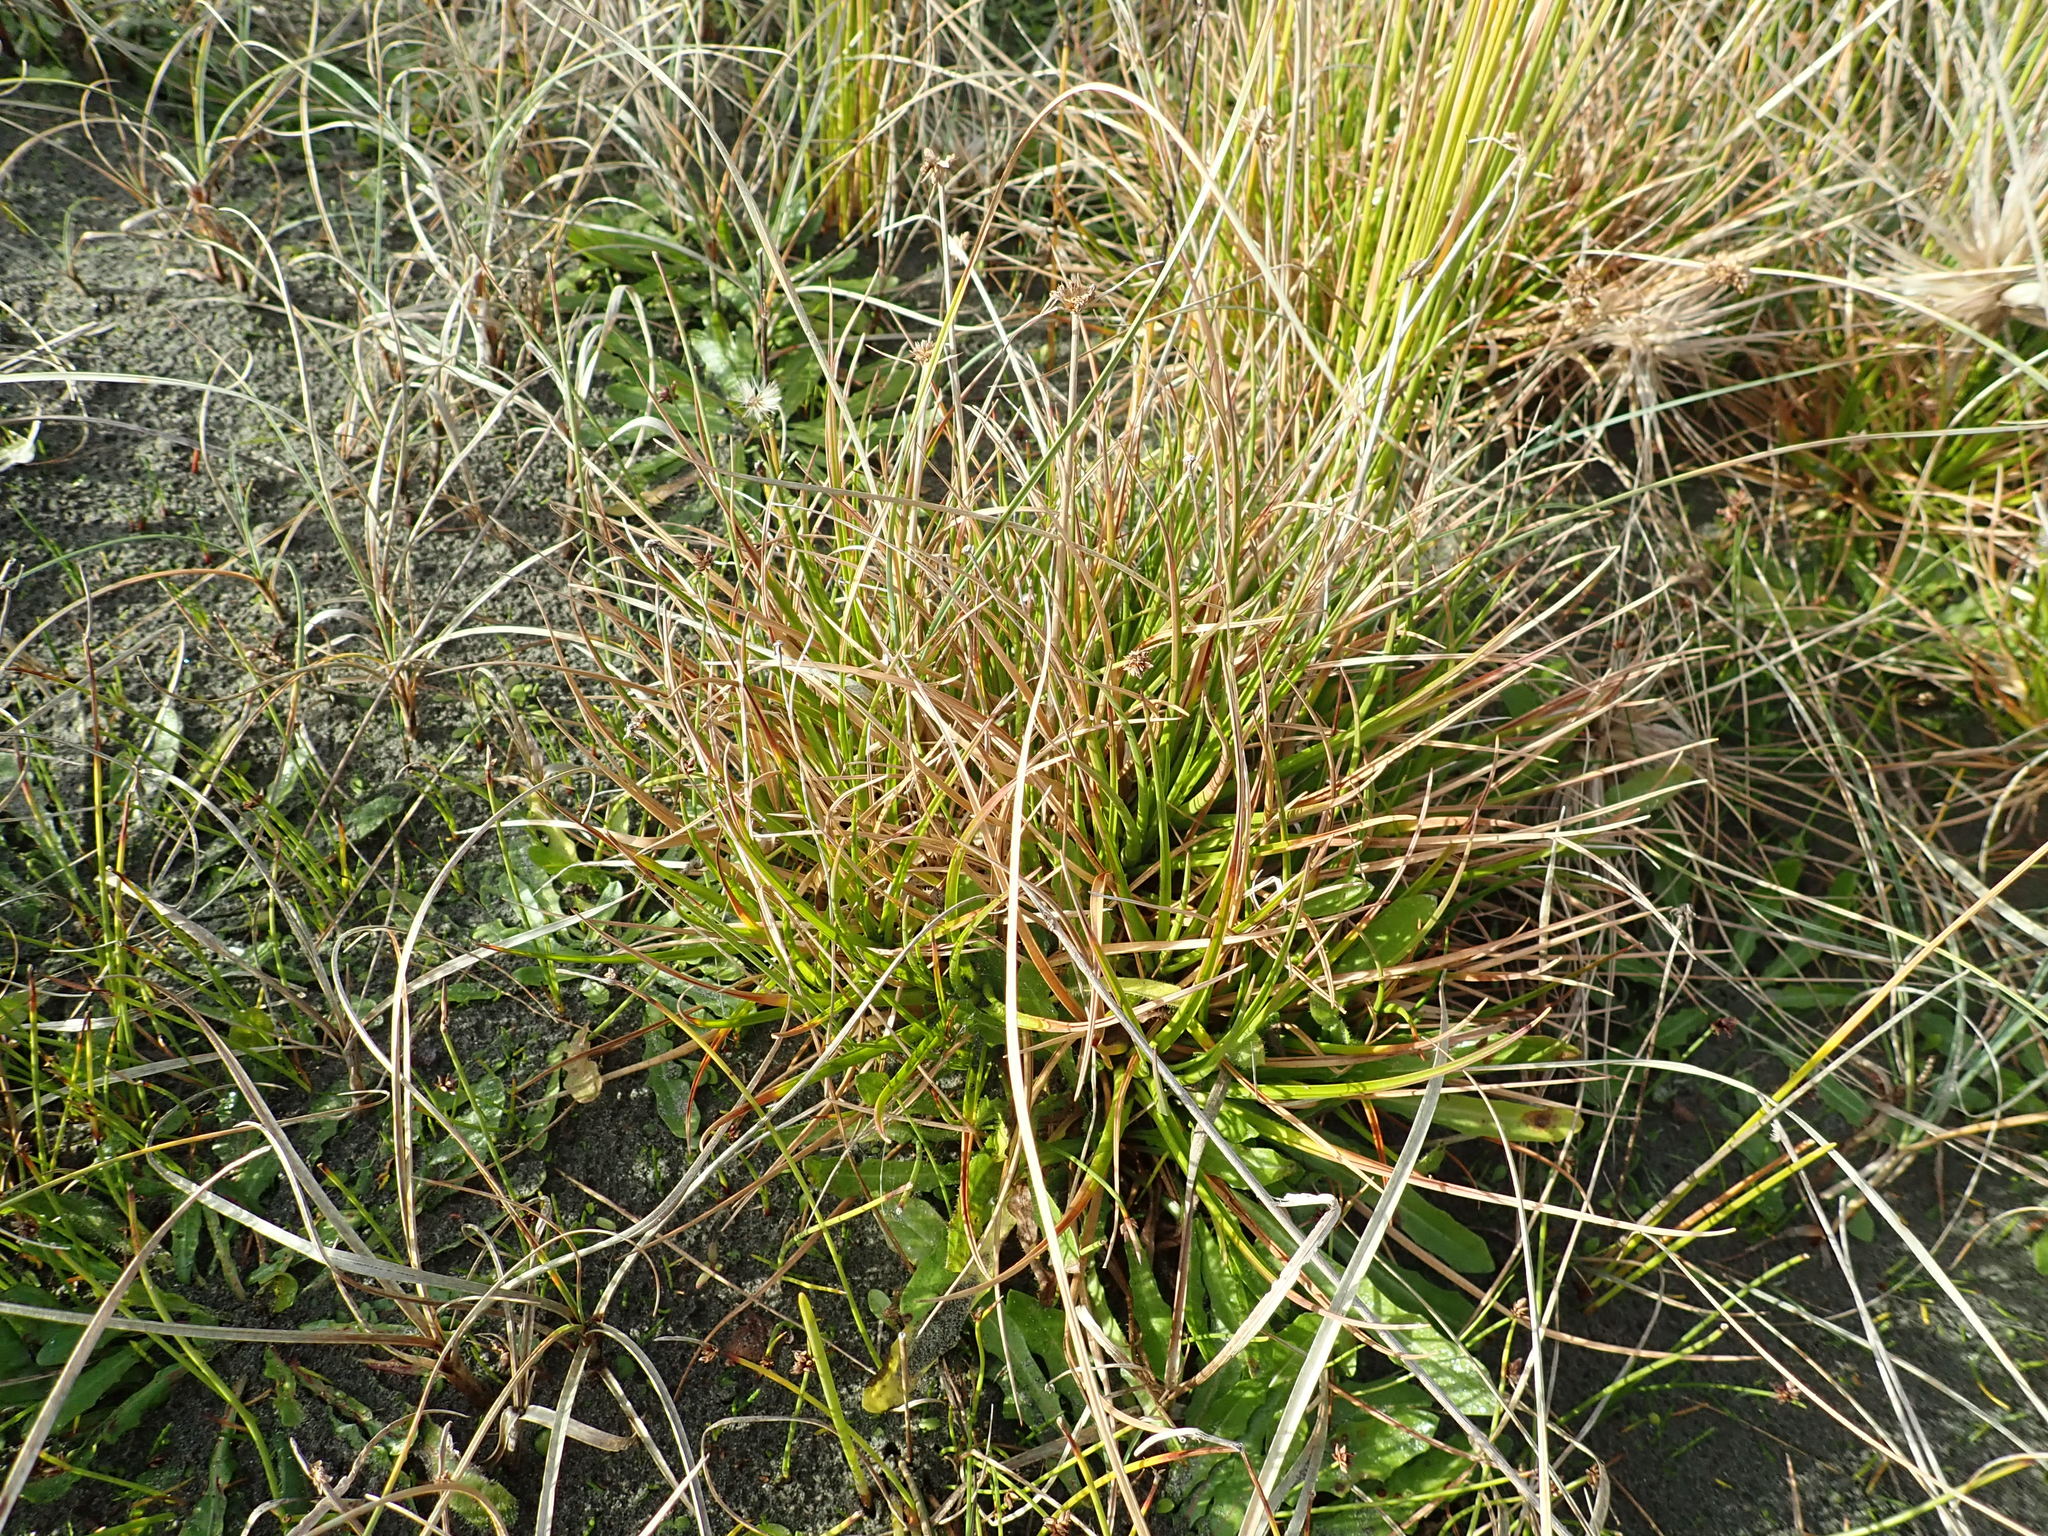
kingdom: Plantae
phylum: Tracheophyta
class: Liliopsida
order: Poales
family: Juncaceae
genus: Juncus
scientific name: Juncus caespiticius
